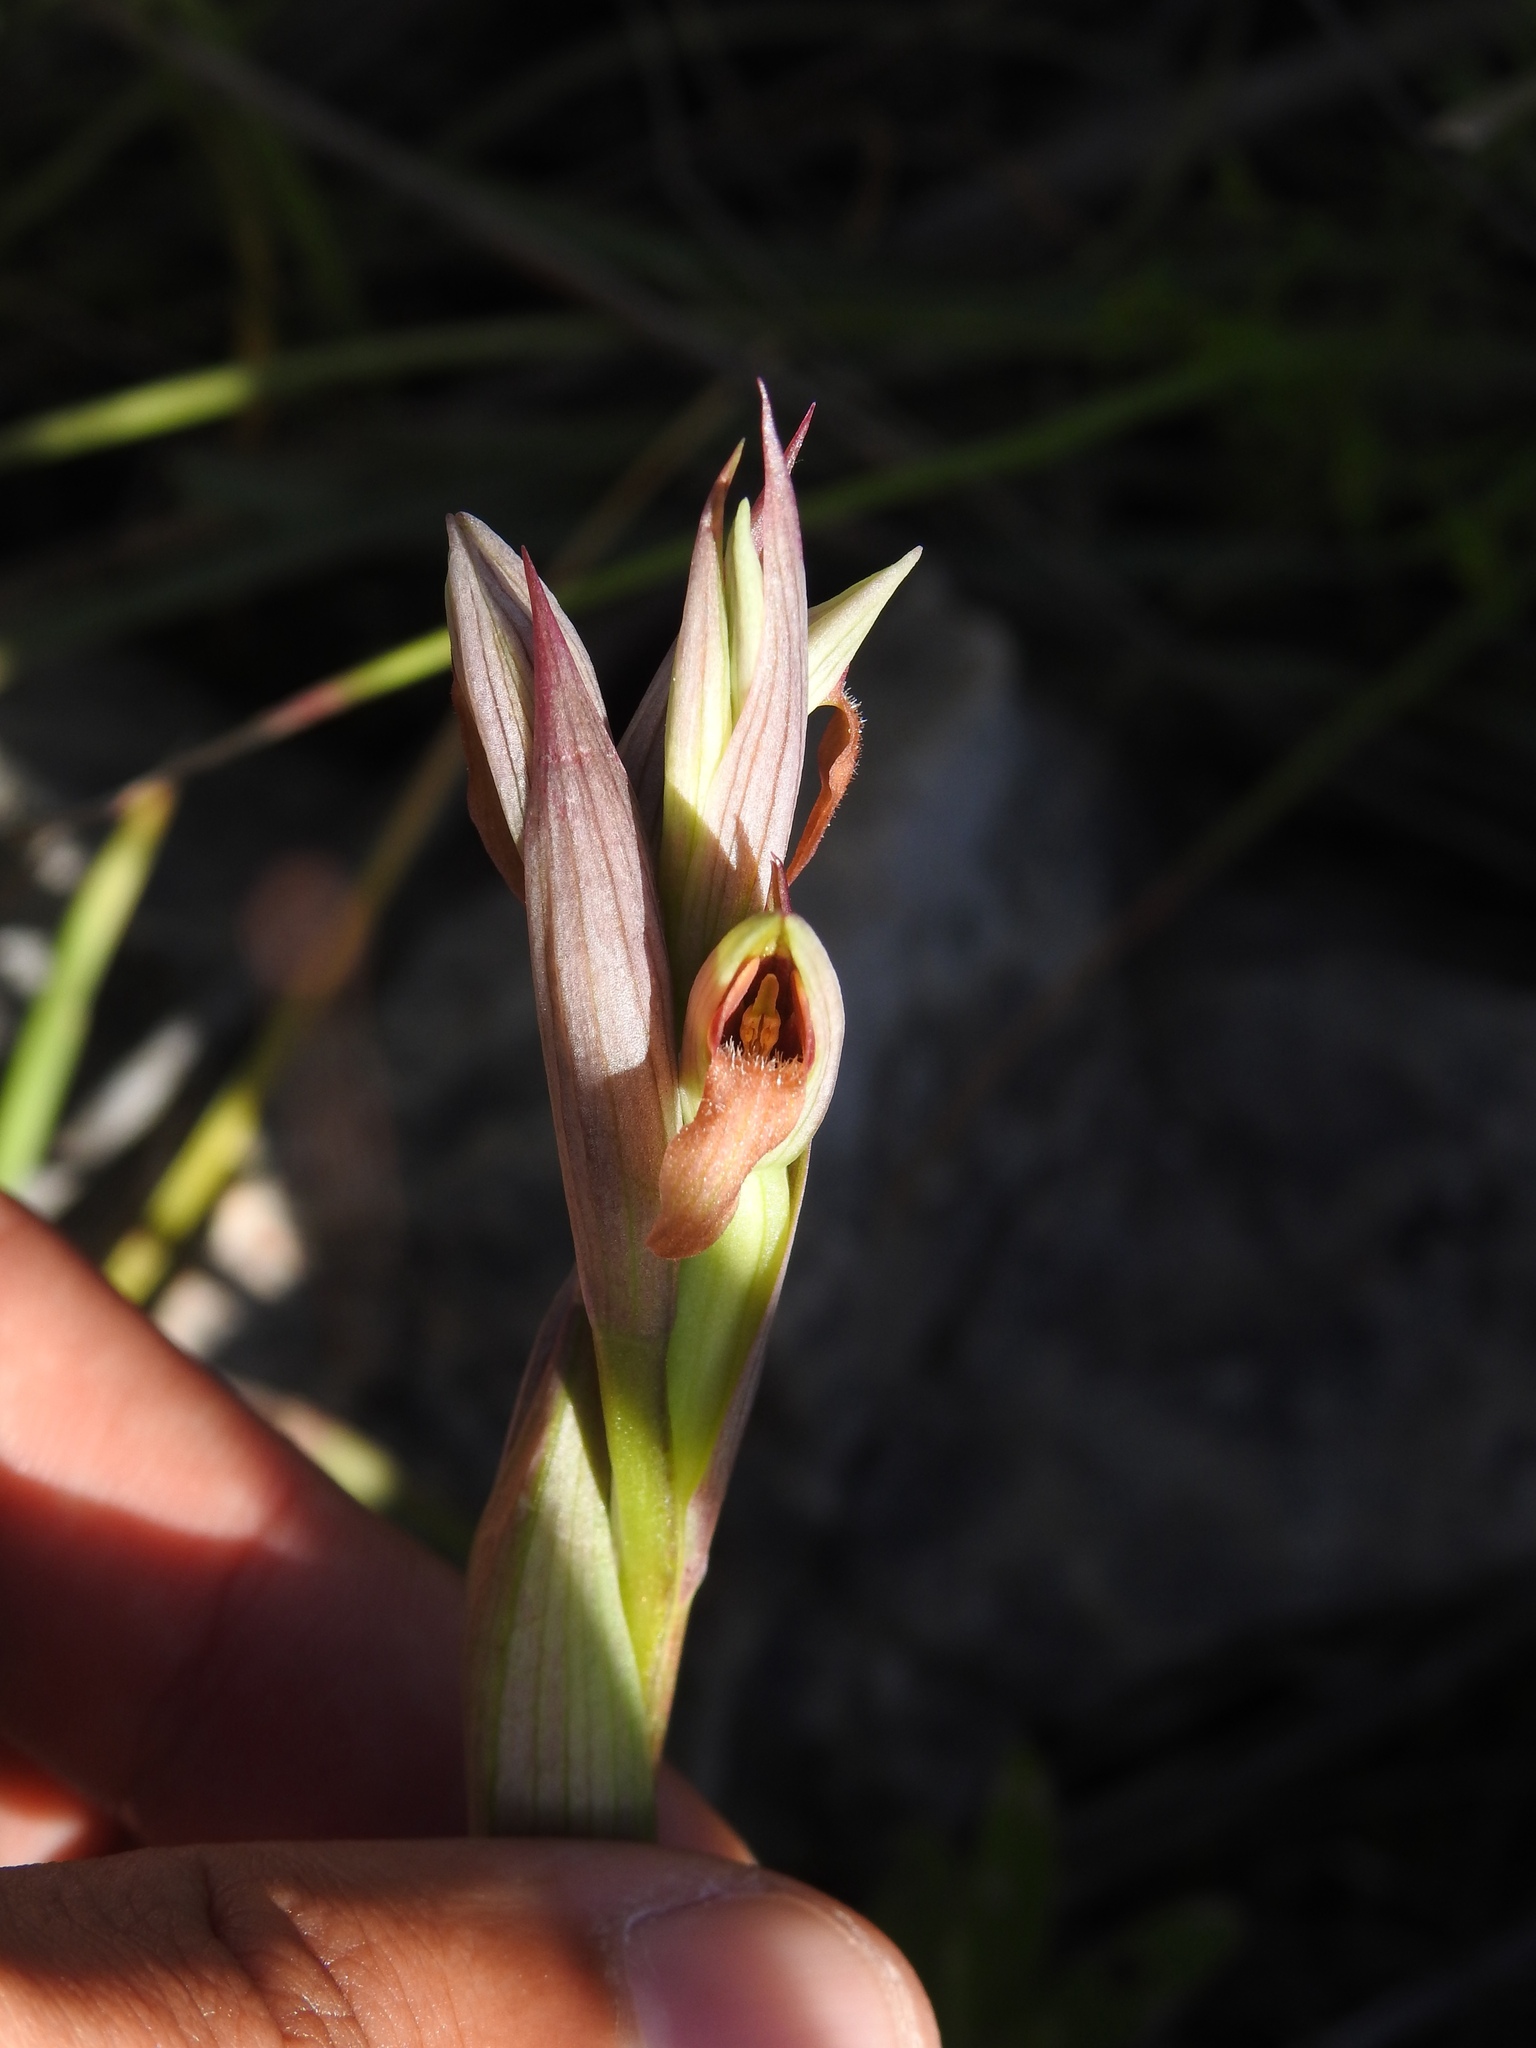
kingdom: Plantae
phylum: Tracheophyta
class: Liliopsida
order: Asparagales
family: Orchidaceae
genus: Serapias
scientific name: Serapias parviflora
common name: Small-flowered tongue-orchid
